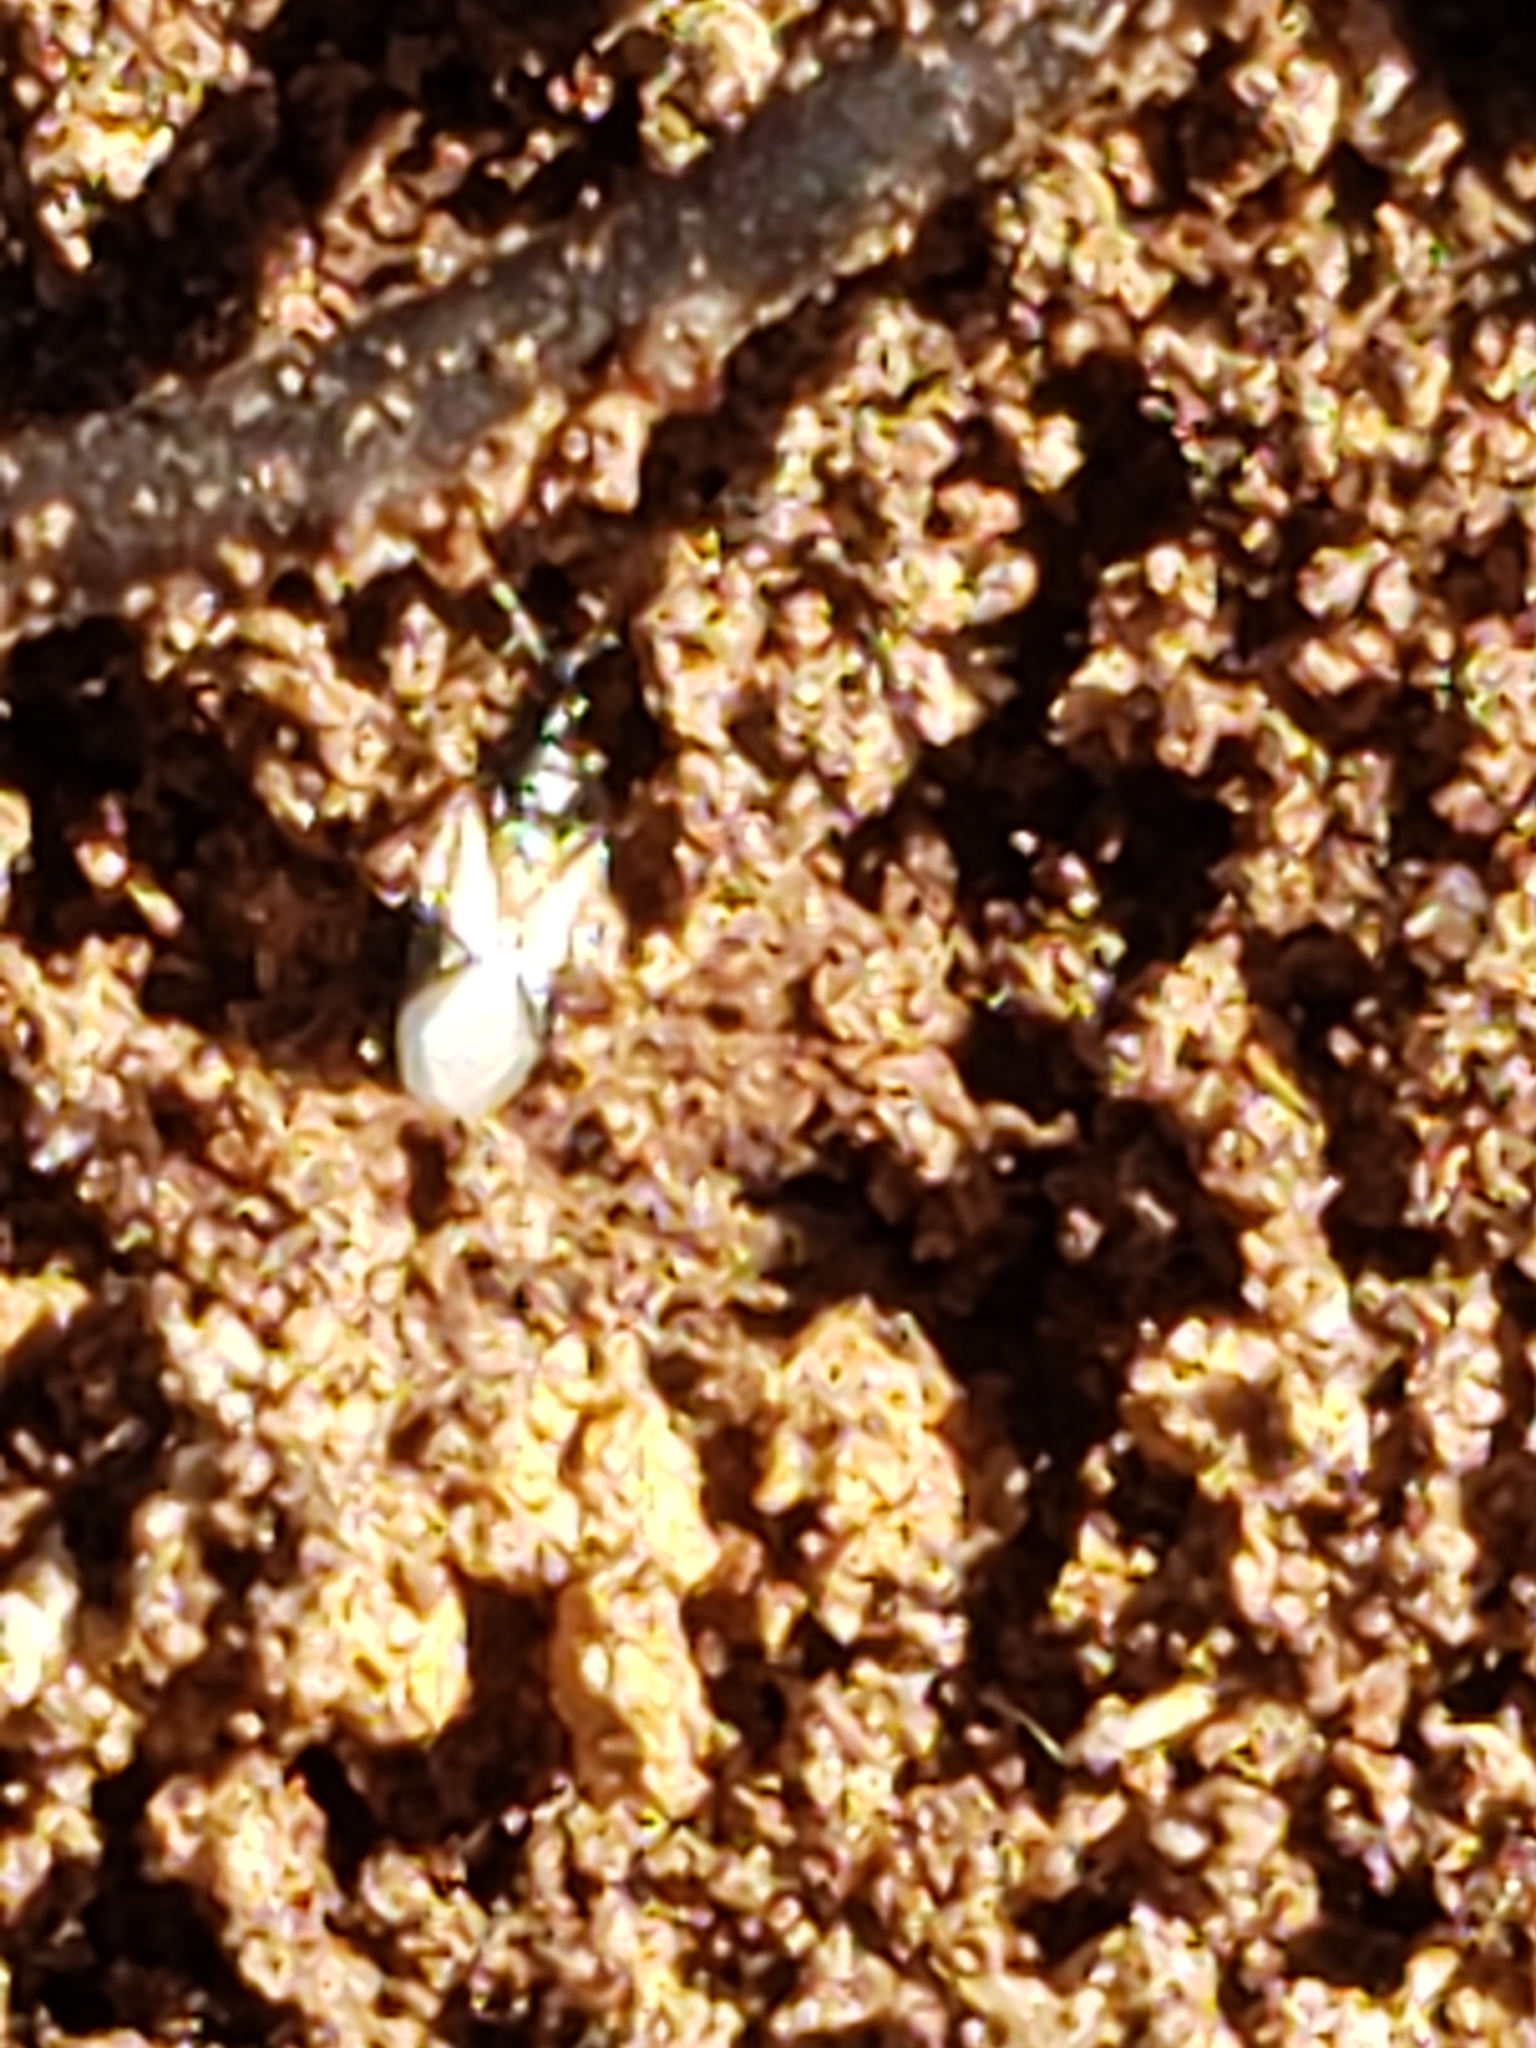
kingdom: Animalia
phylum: Arthropoda
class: Insecta
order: Hemiptera
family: Anthocoridae
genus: Orius
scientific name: Orius insidiosus
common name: Insidious flower bug
